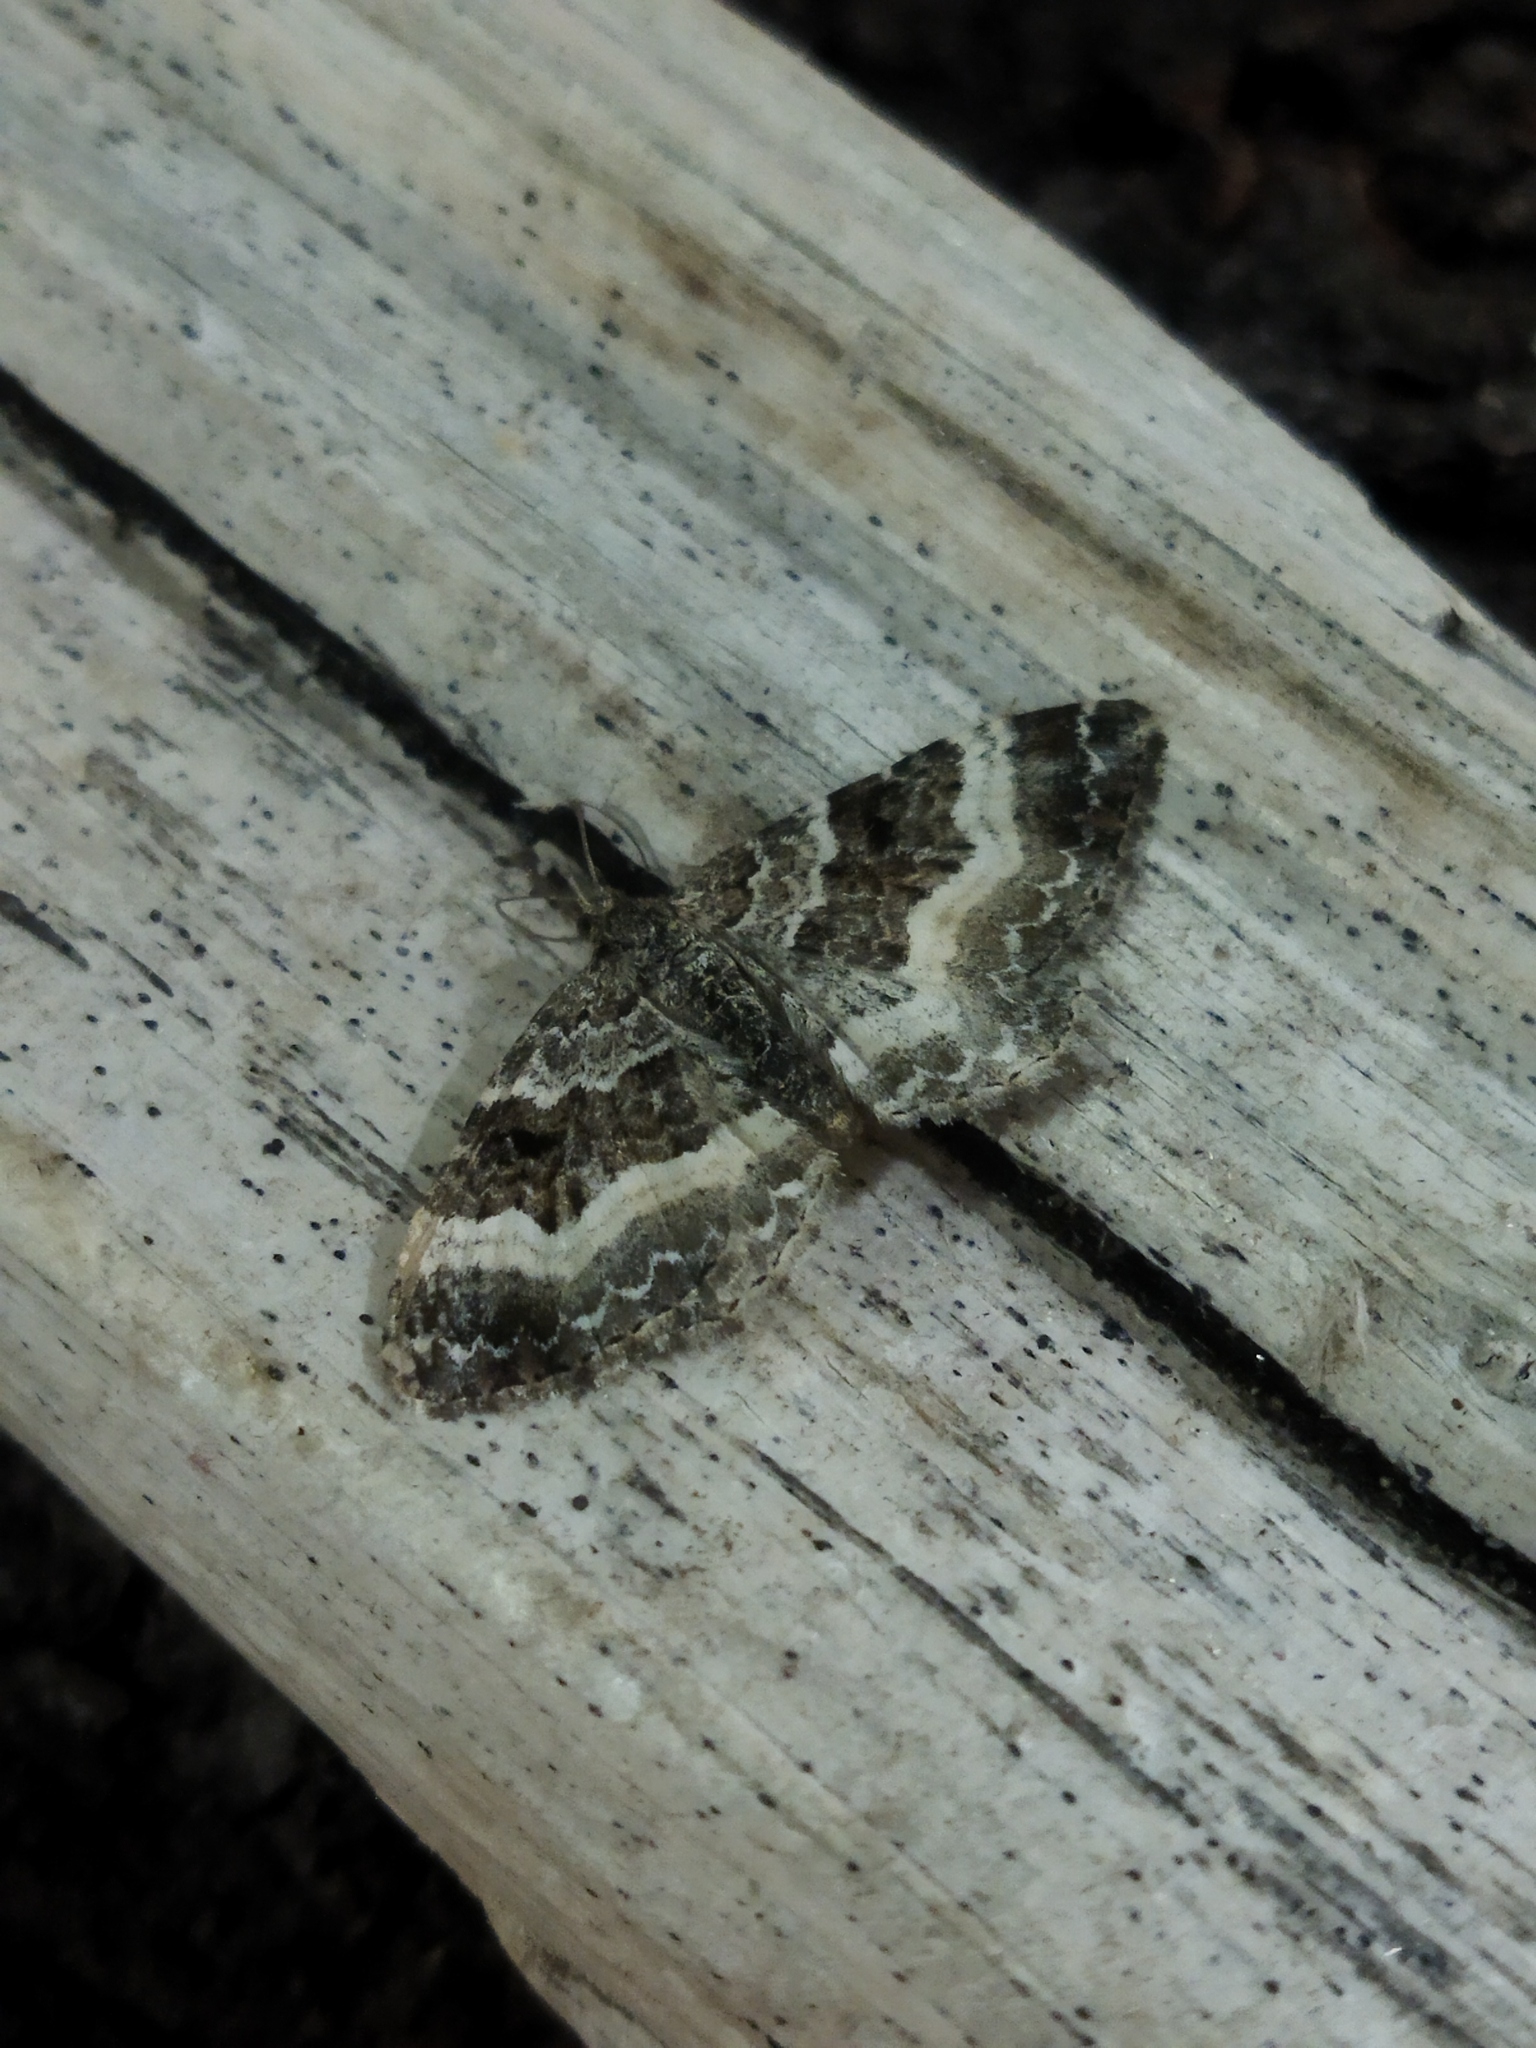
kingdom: Animalia
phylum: Arthropoda
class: Insecta
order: Lepidoptera
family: Geometridae
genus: Epirrhoe
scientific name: Epirrhoe alternata
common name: Common carpet
